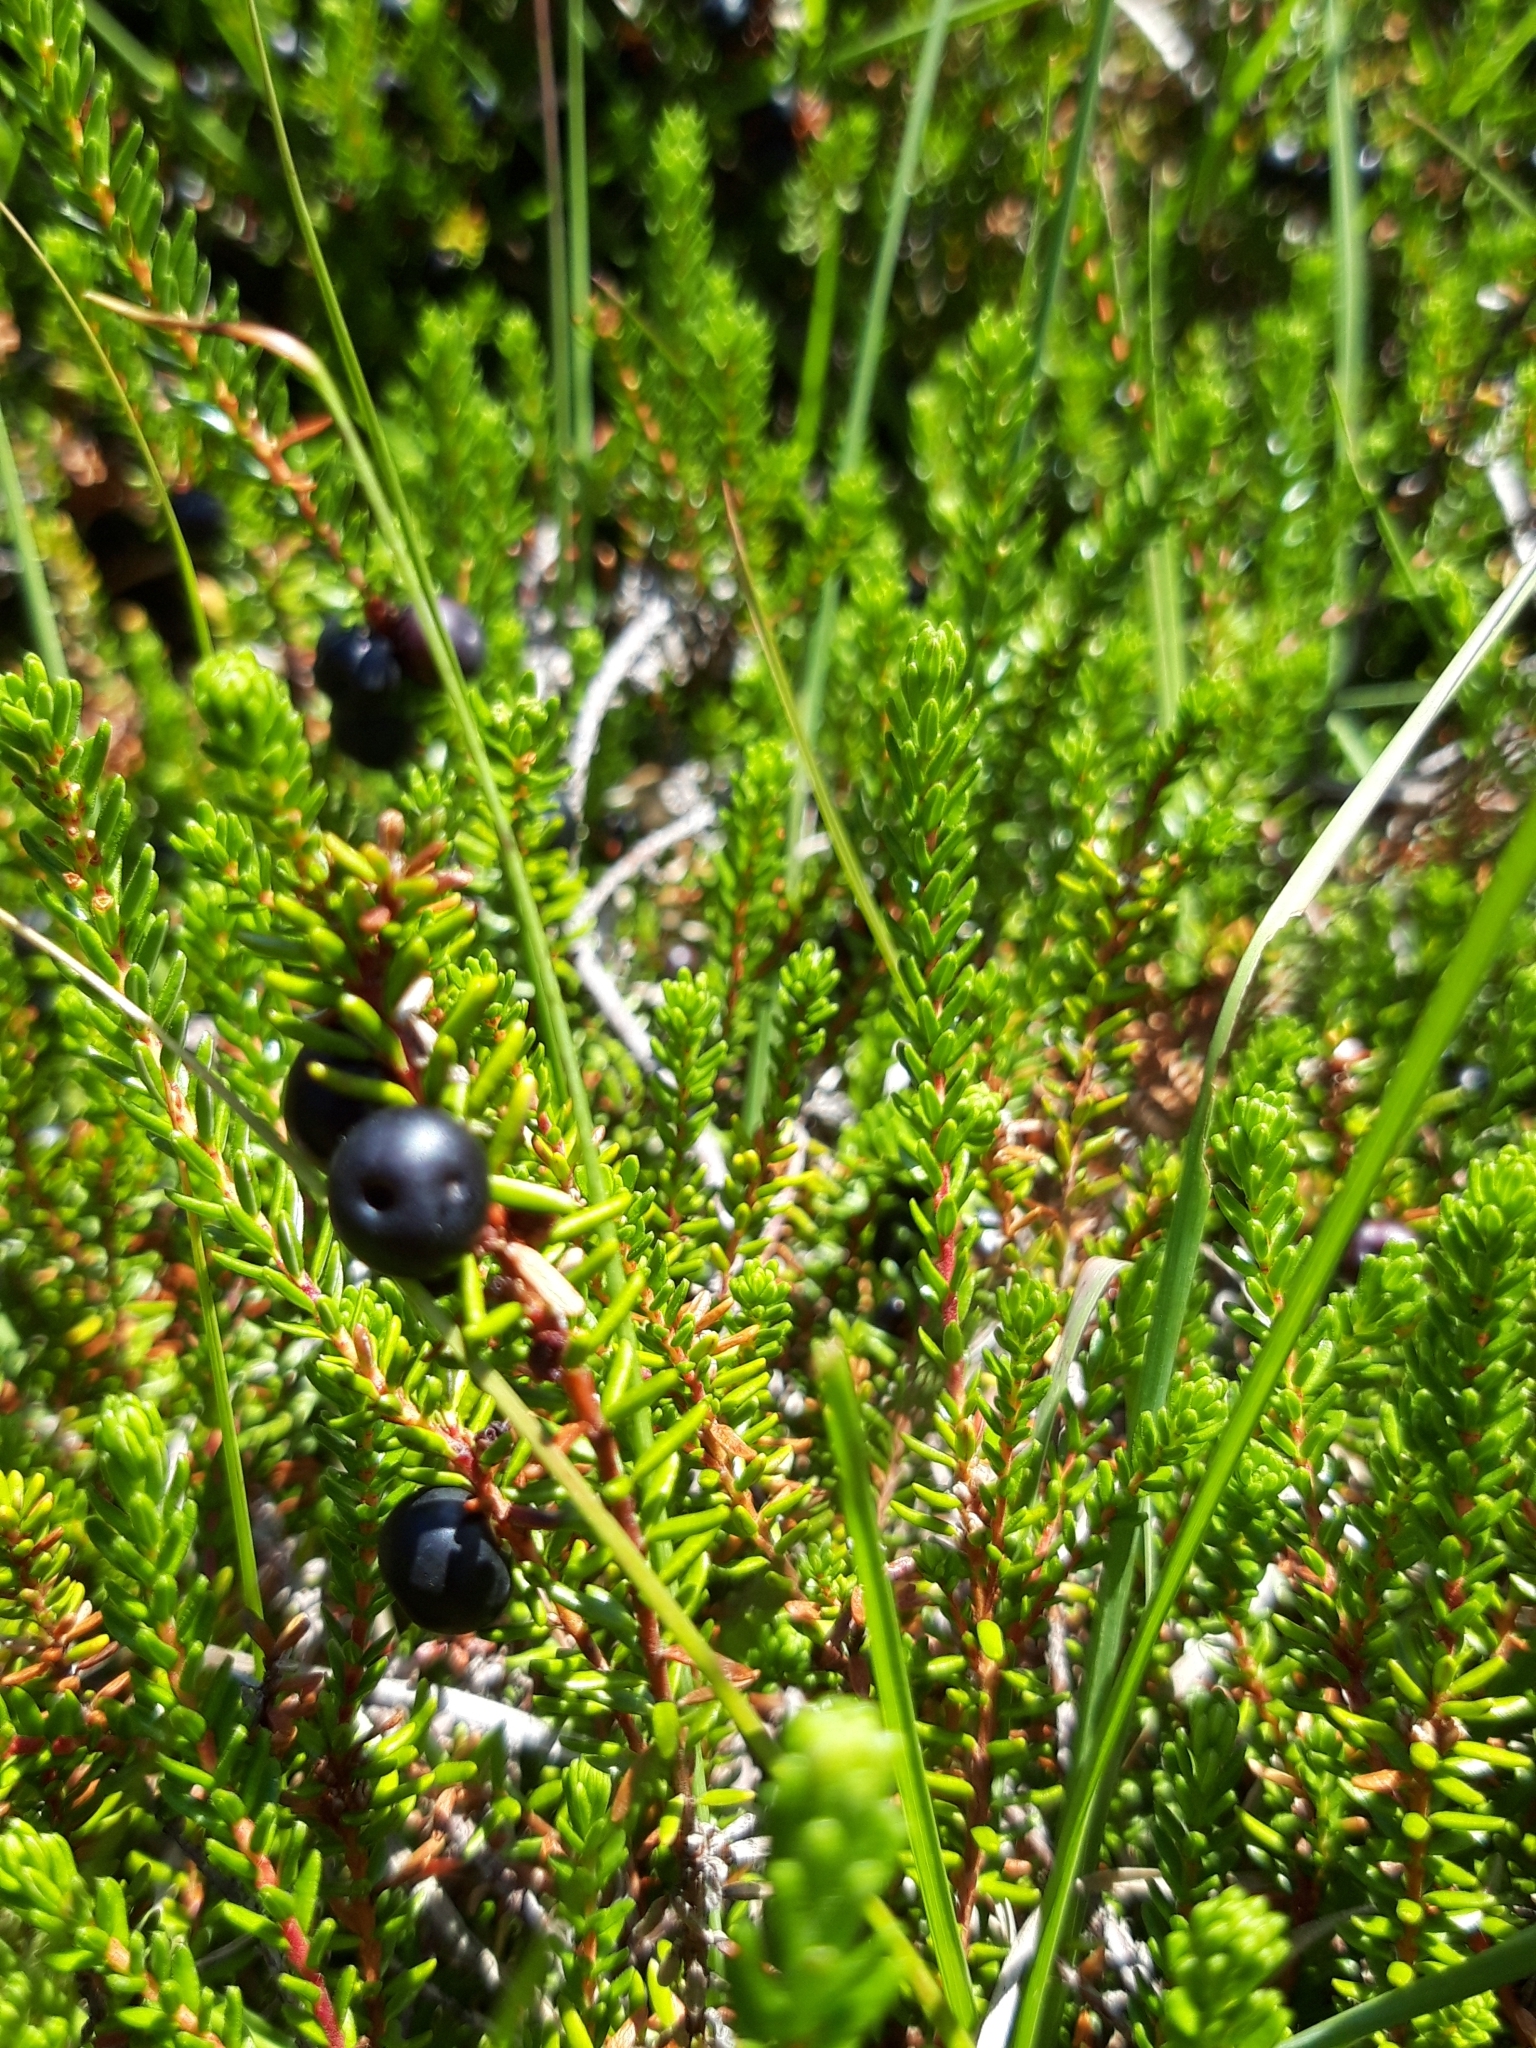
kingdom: Plantae
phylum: Tracheophyta
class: Magnoliopsida
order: Ericales
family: Ericaceae
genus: Empetrum
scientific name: Empetrum nigrum
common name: Black crowberry
